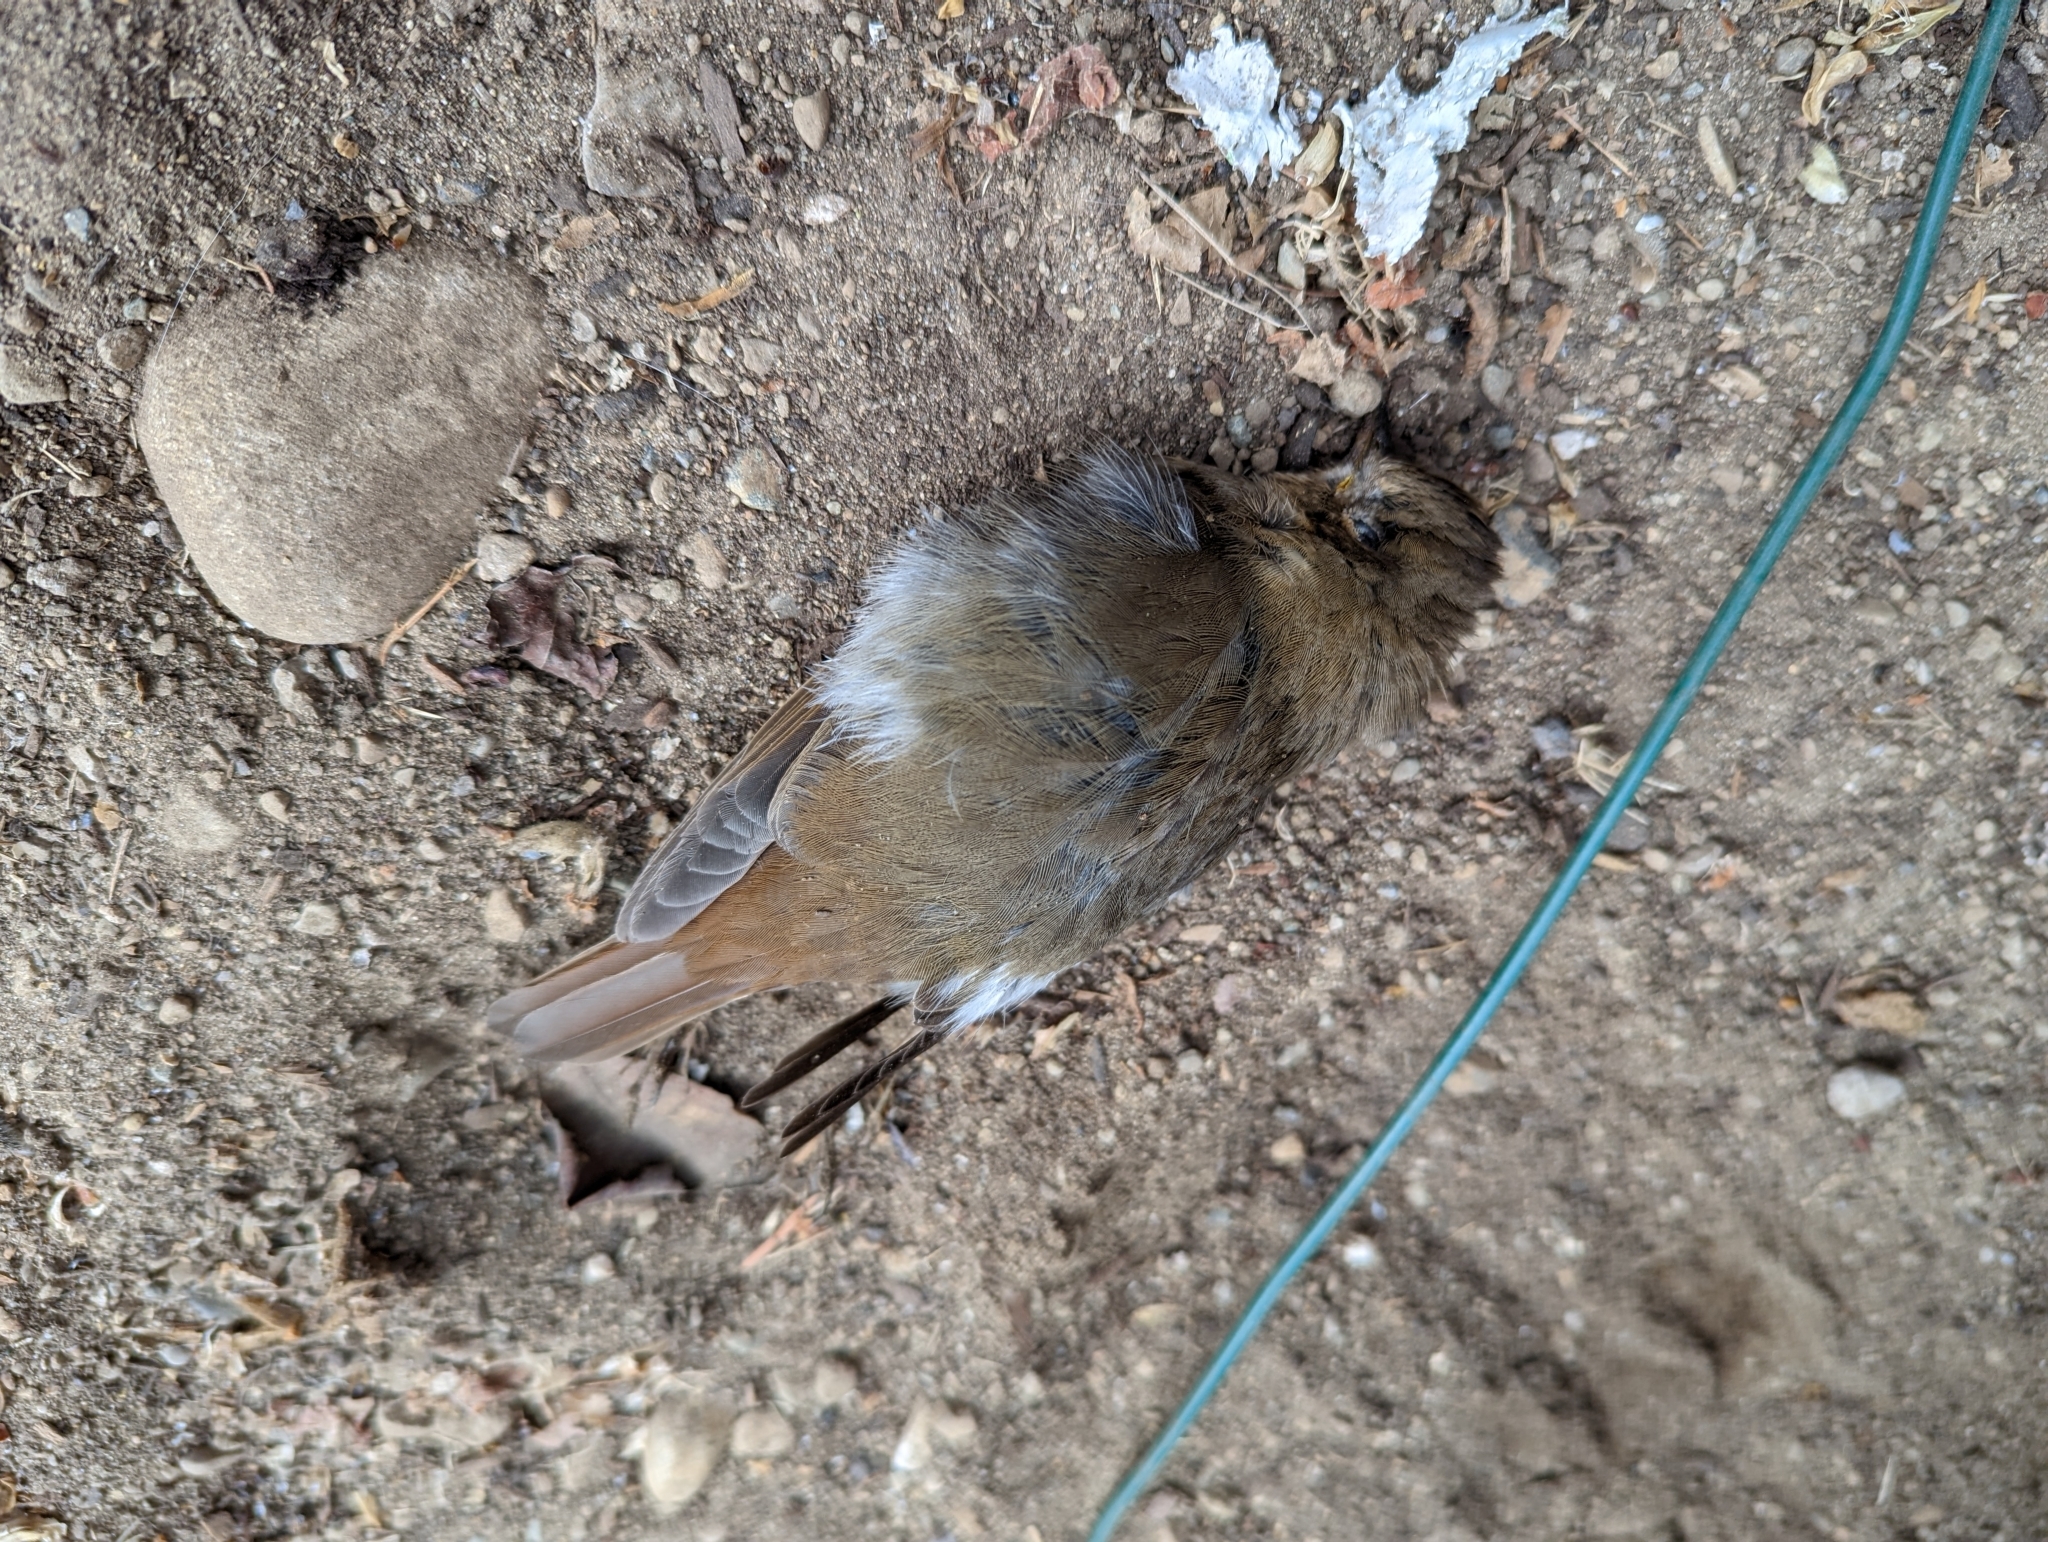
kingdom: Animalia
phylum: Chordata
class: Aves
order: Passeriformes
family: Turdidae
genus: Catharus
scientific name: Catharus guttatus
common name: Hermit thrush
